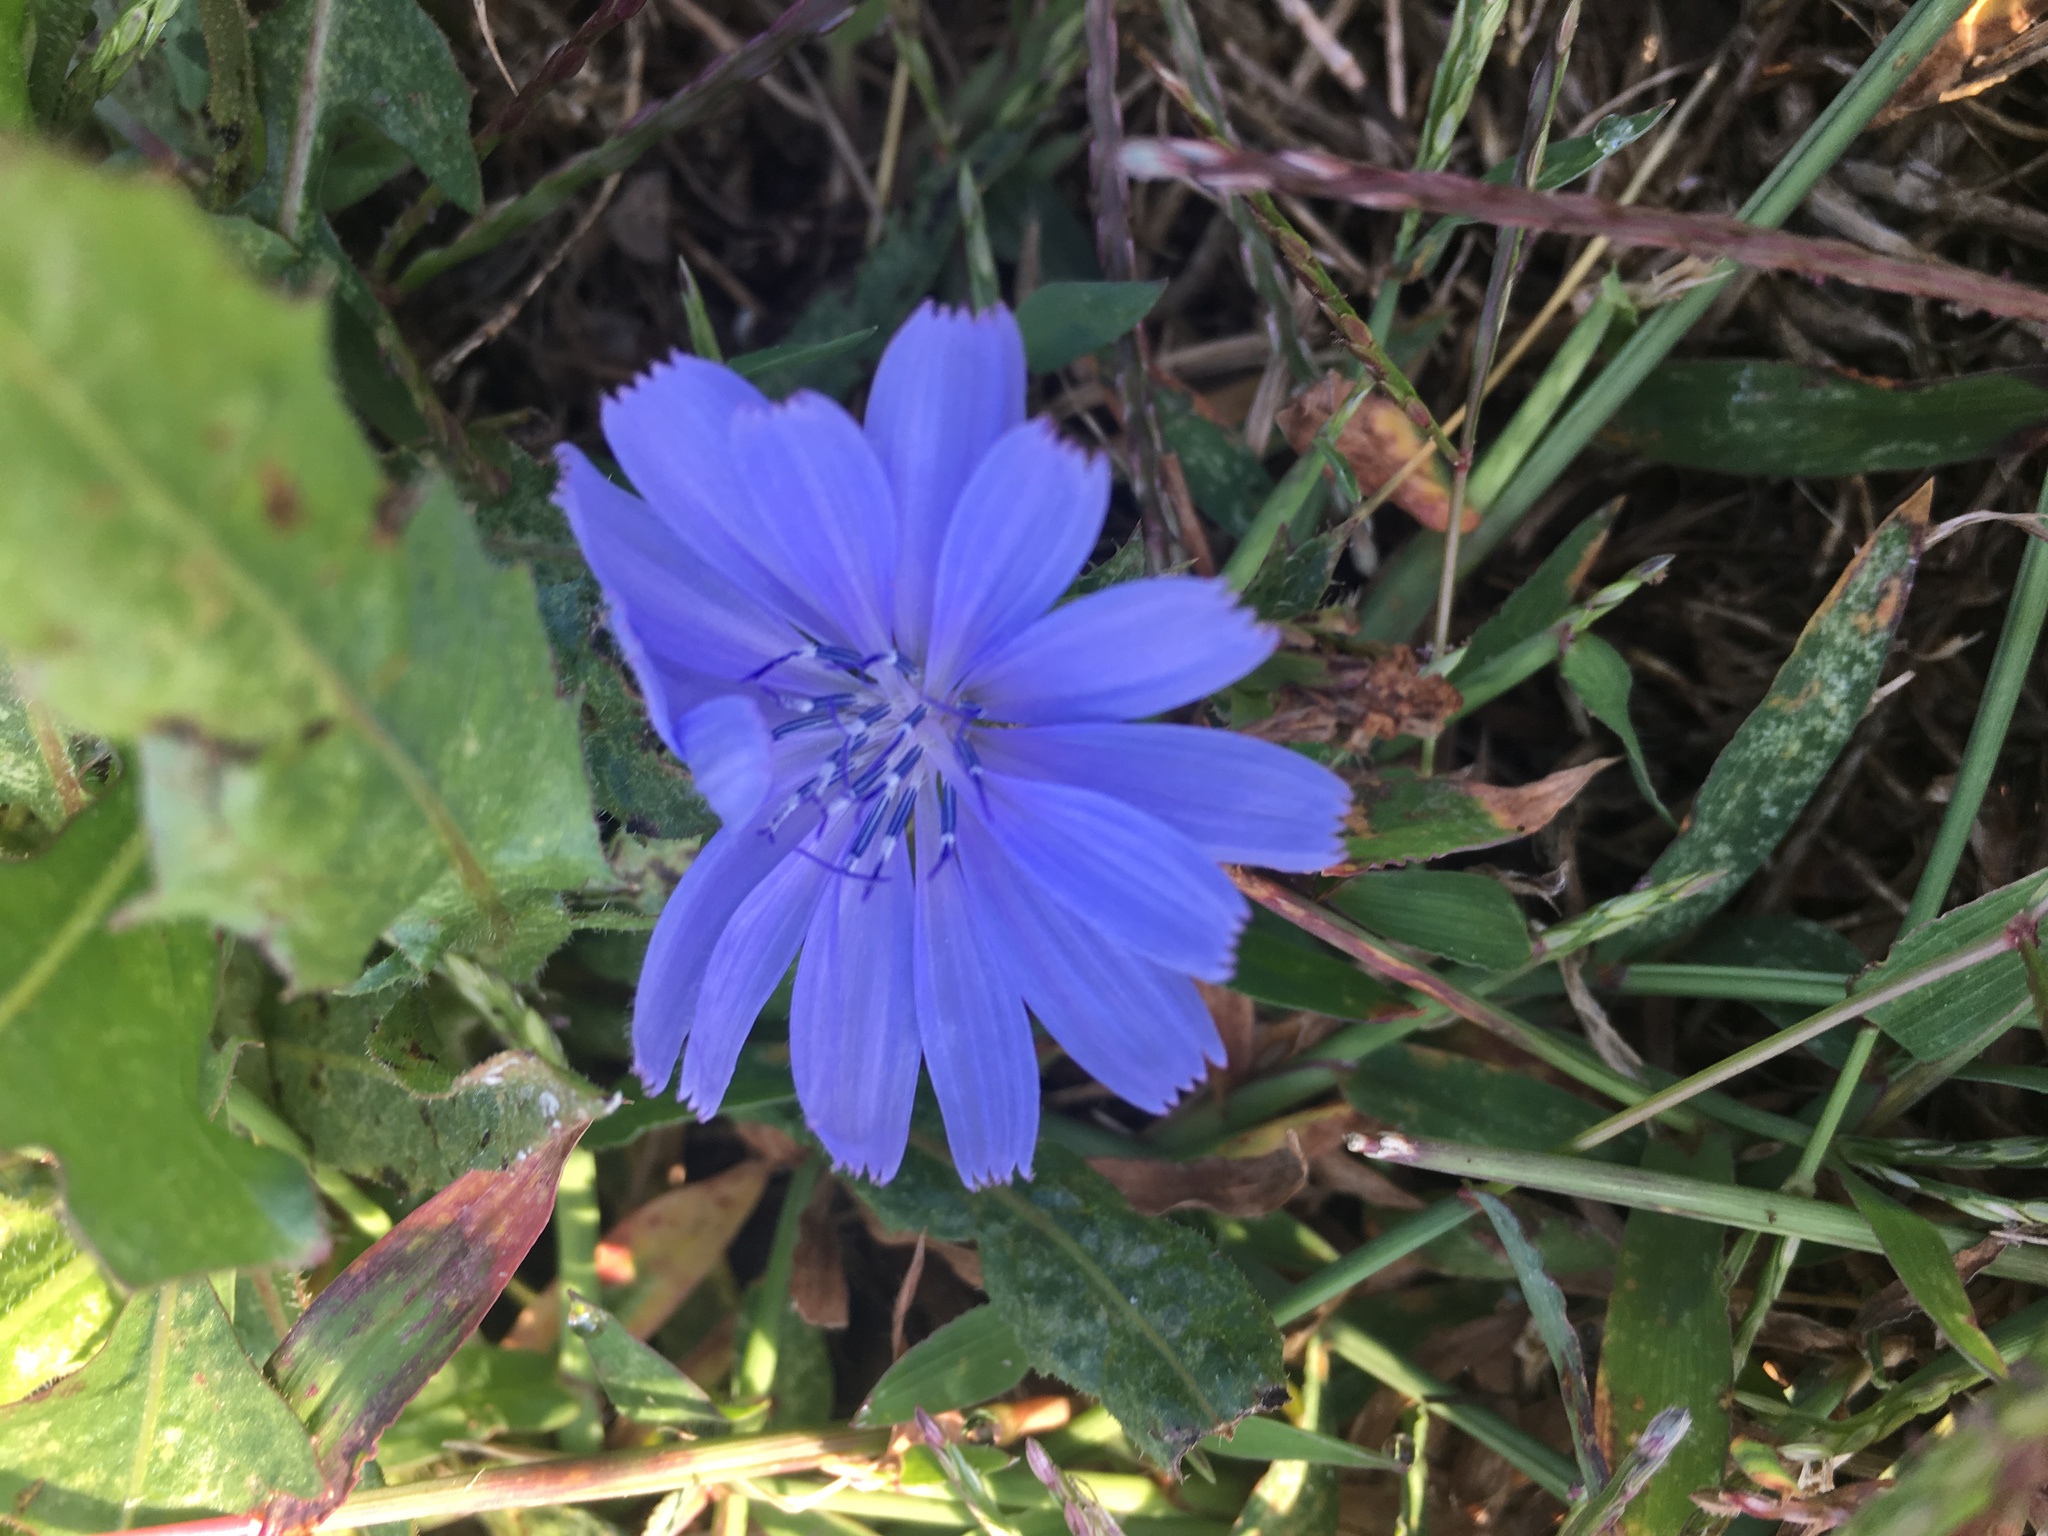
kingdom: Plantae
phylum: Tracheophyta
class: Magnoliopsida
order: Asterales
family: Asteraceae
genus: Cichorium
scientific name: Cichorium intybus
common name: Chicory
